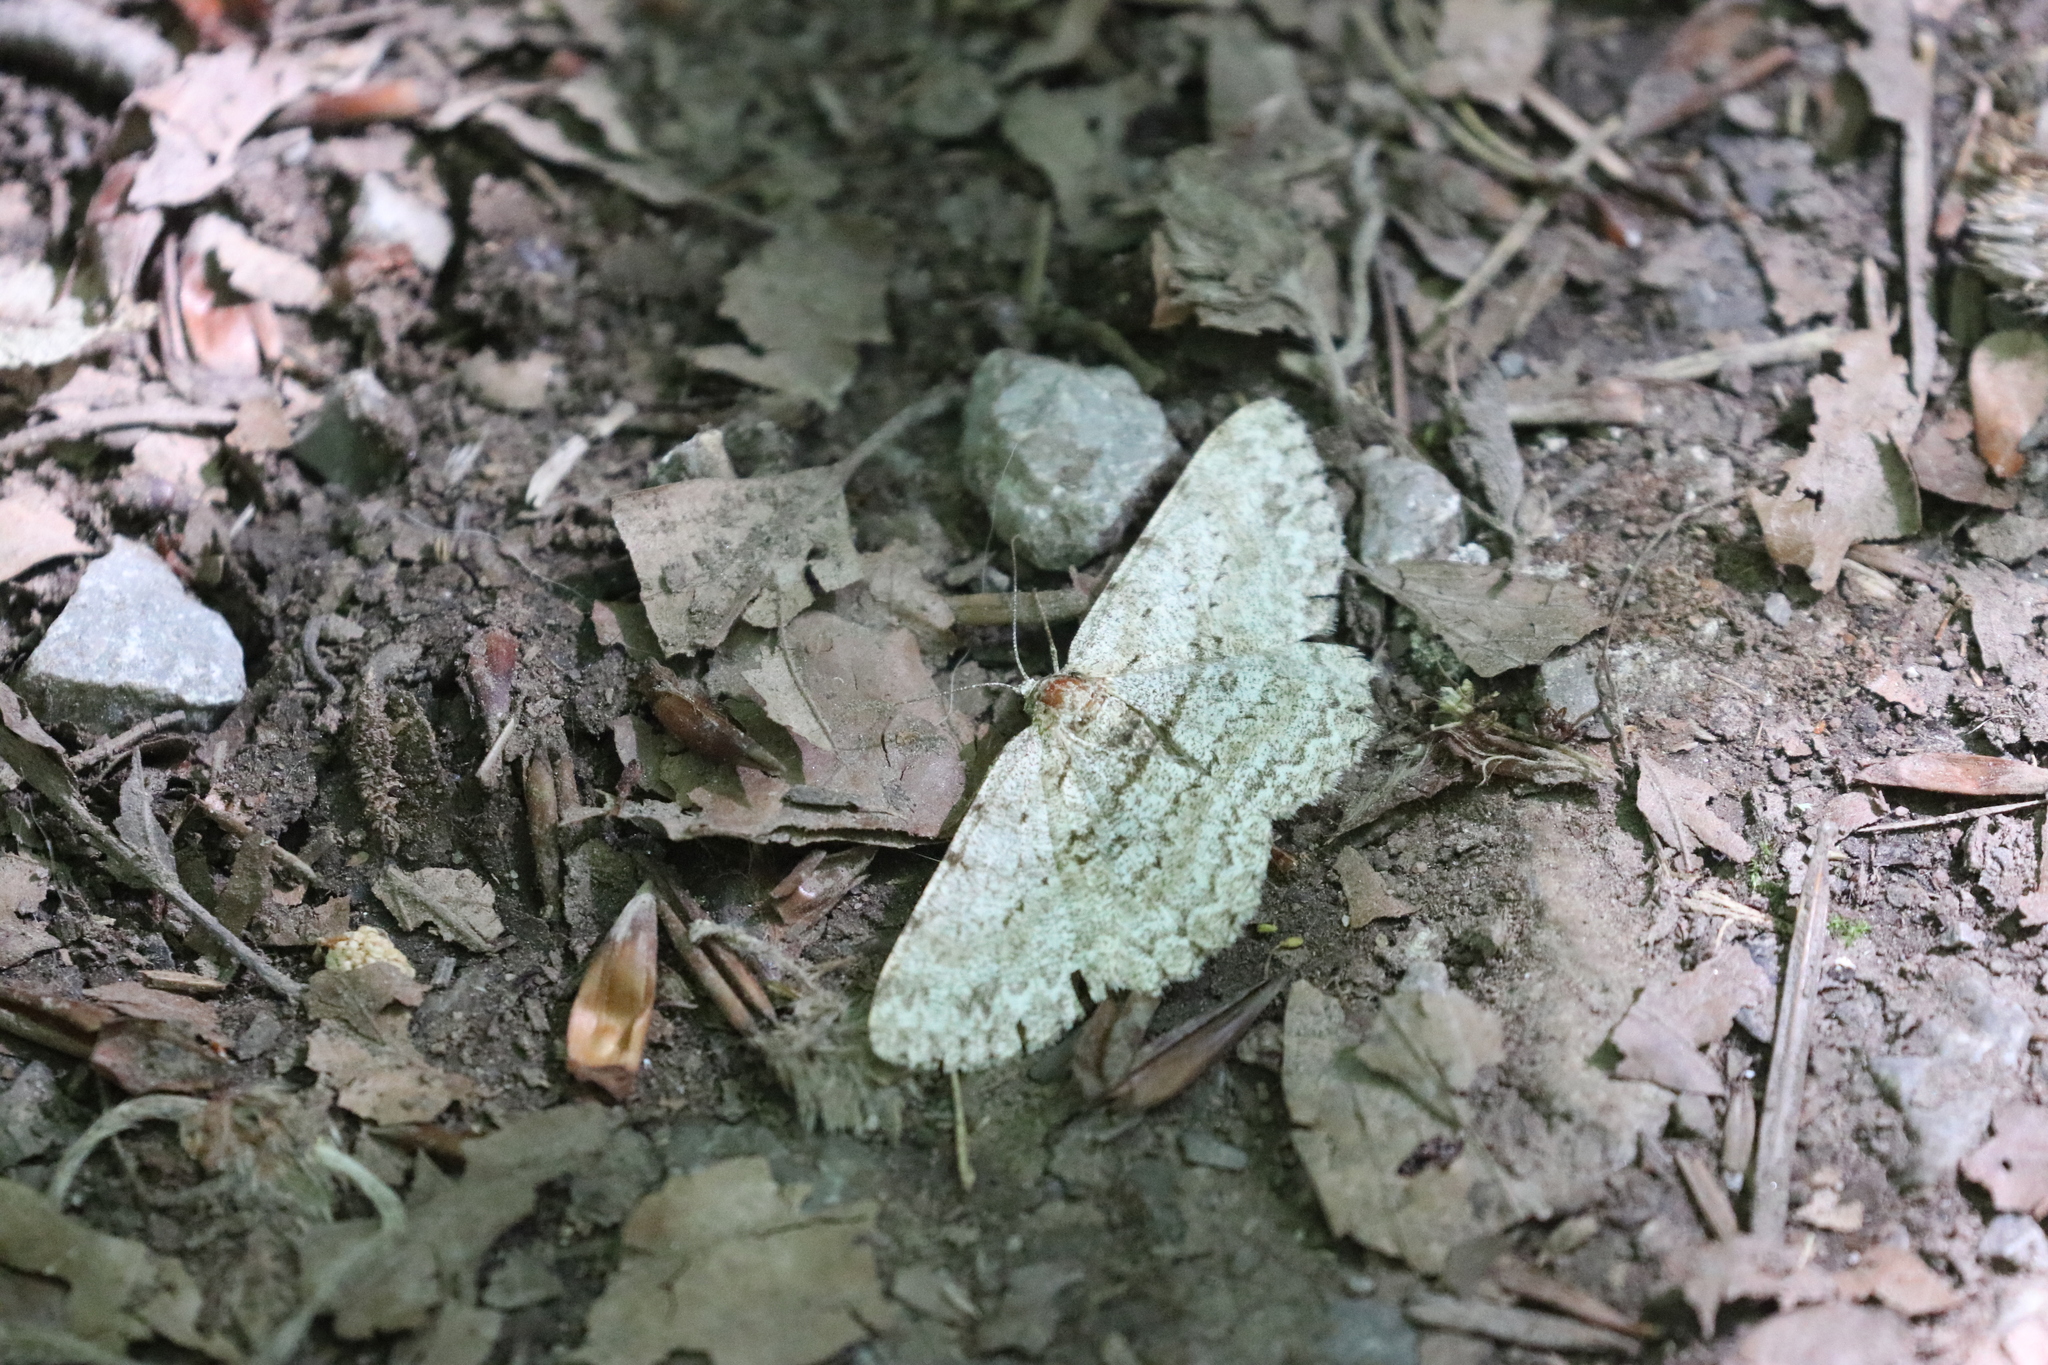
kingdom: Animalia
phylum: Arthropoda
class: Insecta
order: Lepidoptera
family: Geometridae
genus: Hypomecis
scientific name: Hypomecis punctinalis
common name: Pale oak beauty
